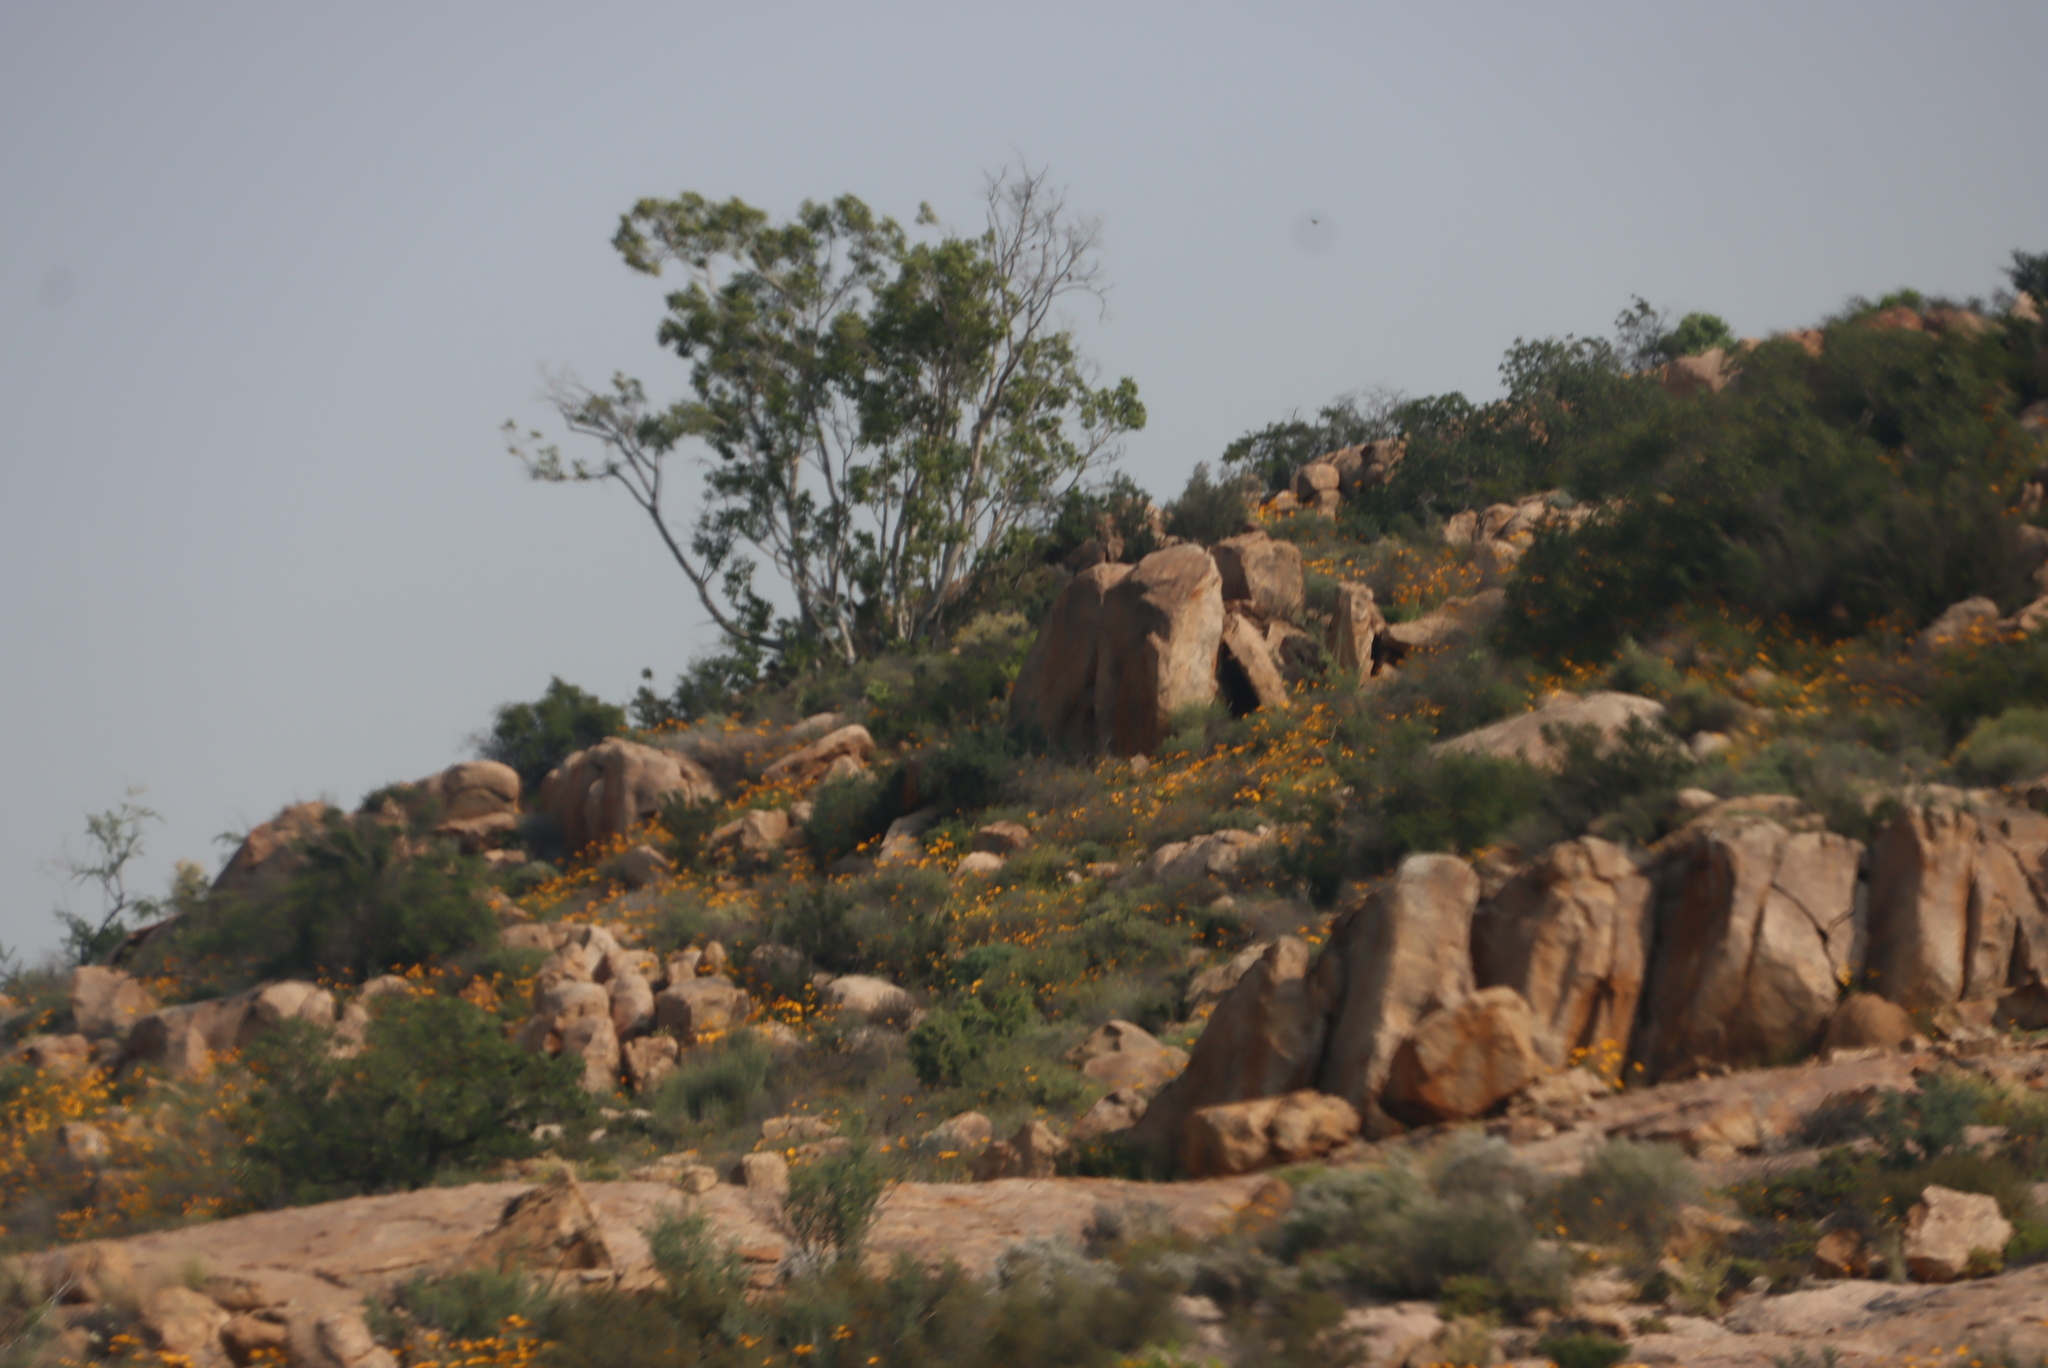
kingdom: Plantae
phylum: Tracheophyta
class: Magnoliopsida
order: Rosales
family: Moraceae
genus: Ficus
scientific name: Ficus cordata
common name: Namaqua rock fig
